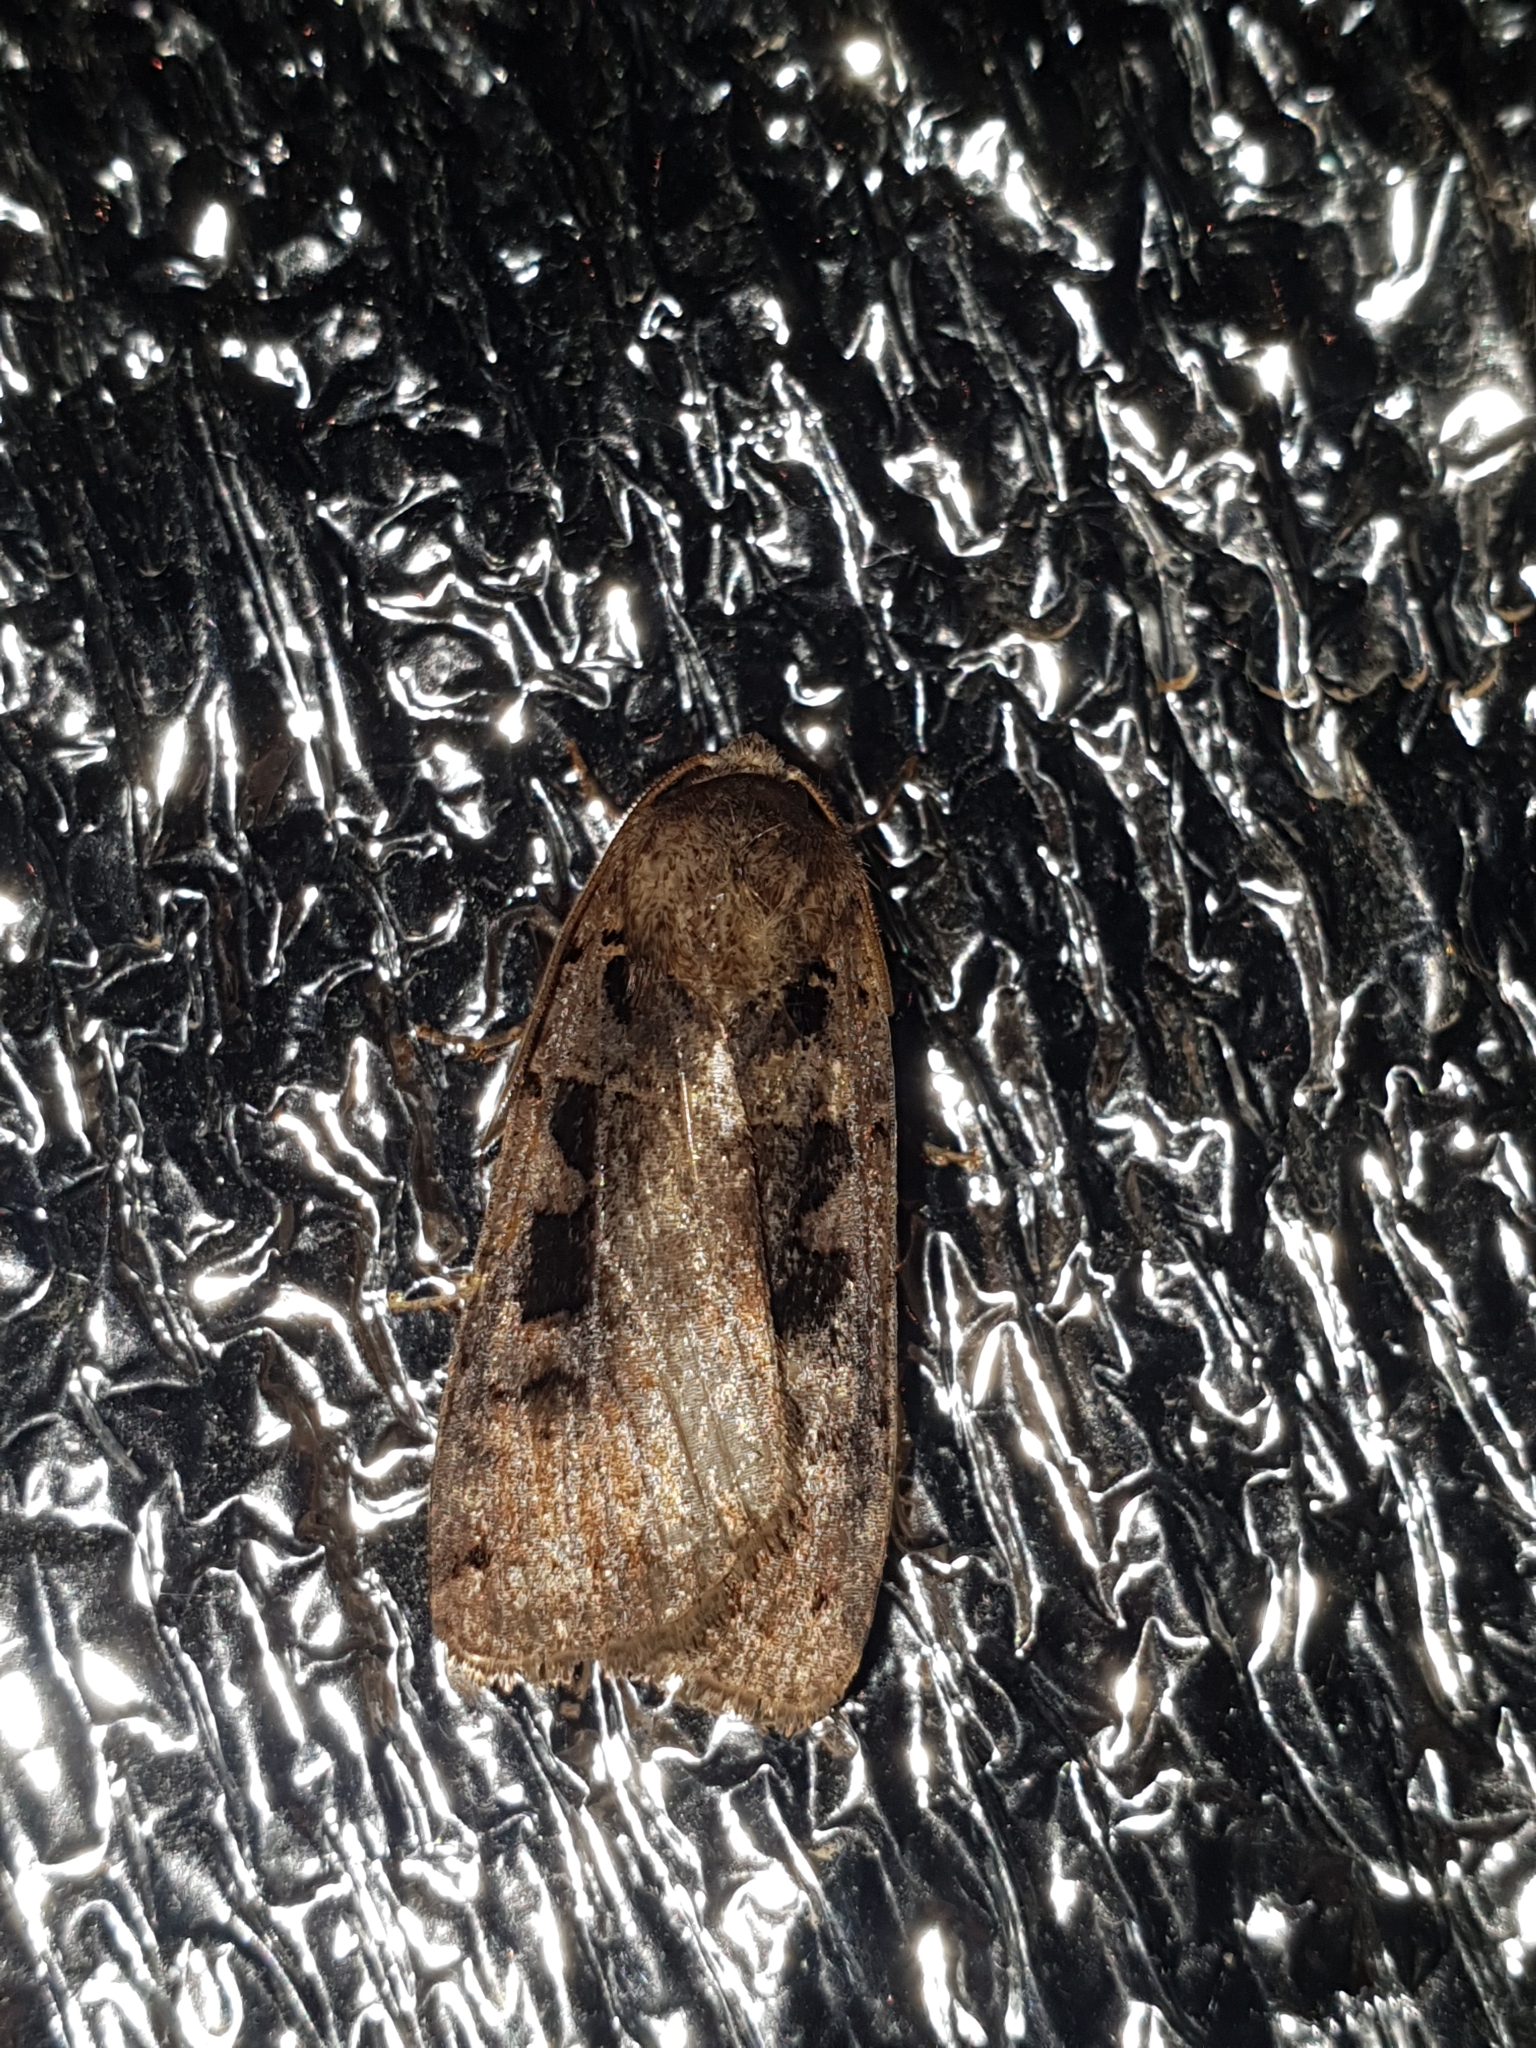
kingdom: Animalia
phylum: Arthropoda
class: Insecta
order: Lepidoptera
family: Noctuidae
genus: Xestia
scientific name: Xestia ditrapezium
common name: Triple-spotted clay
